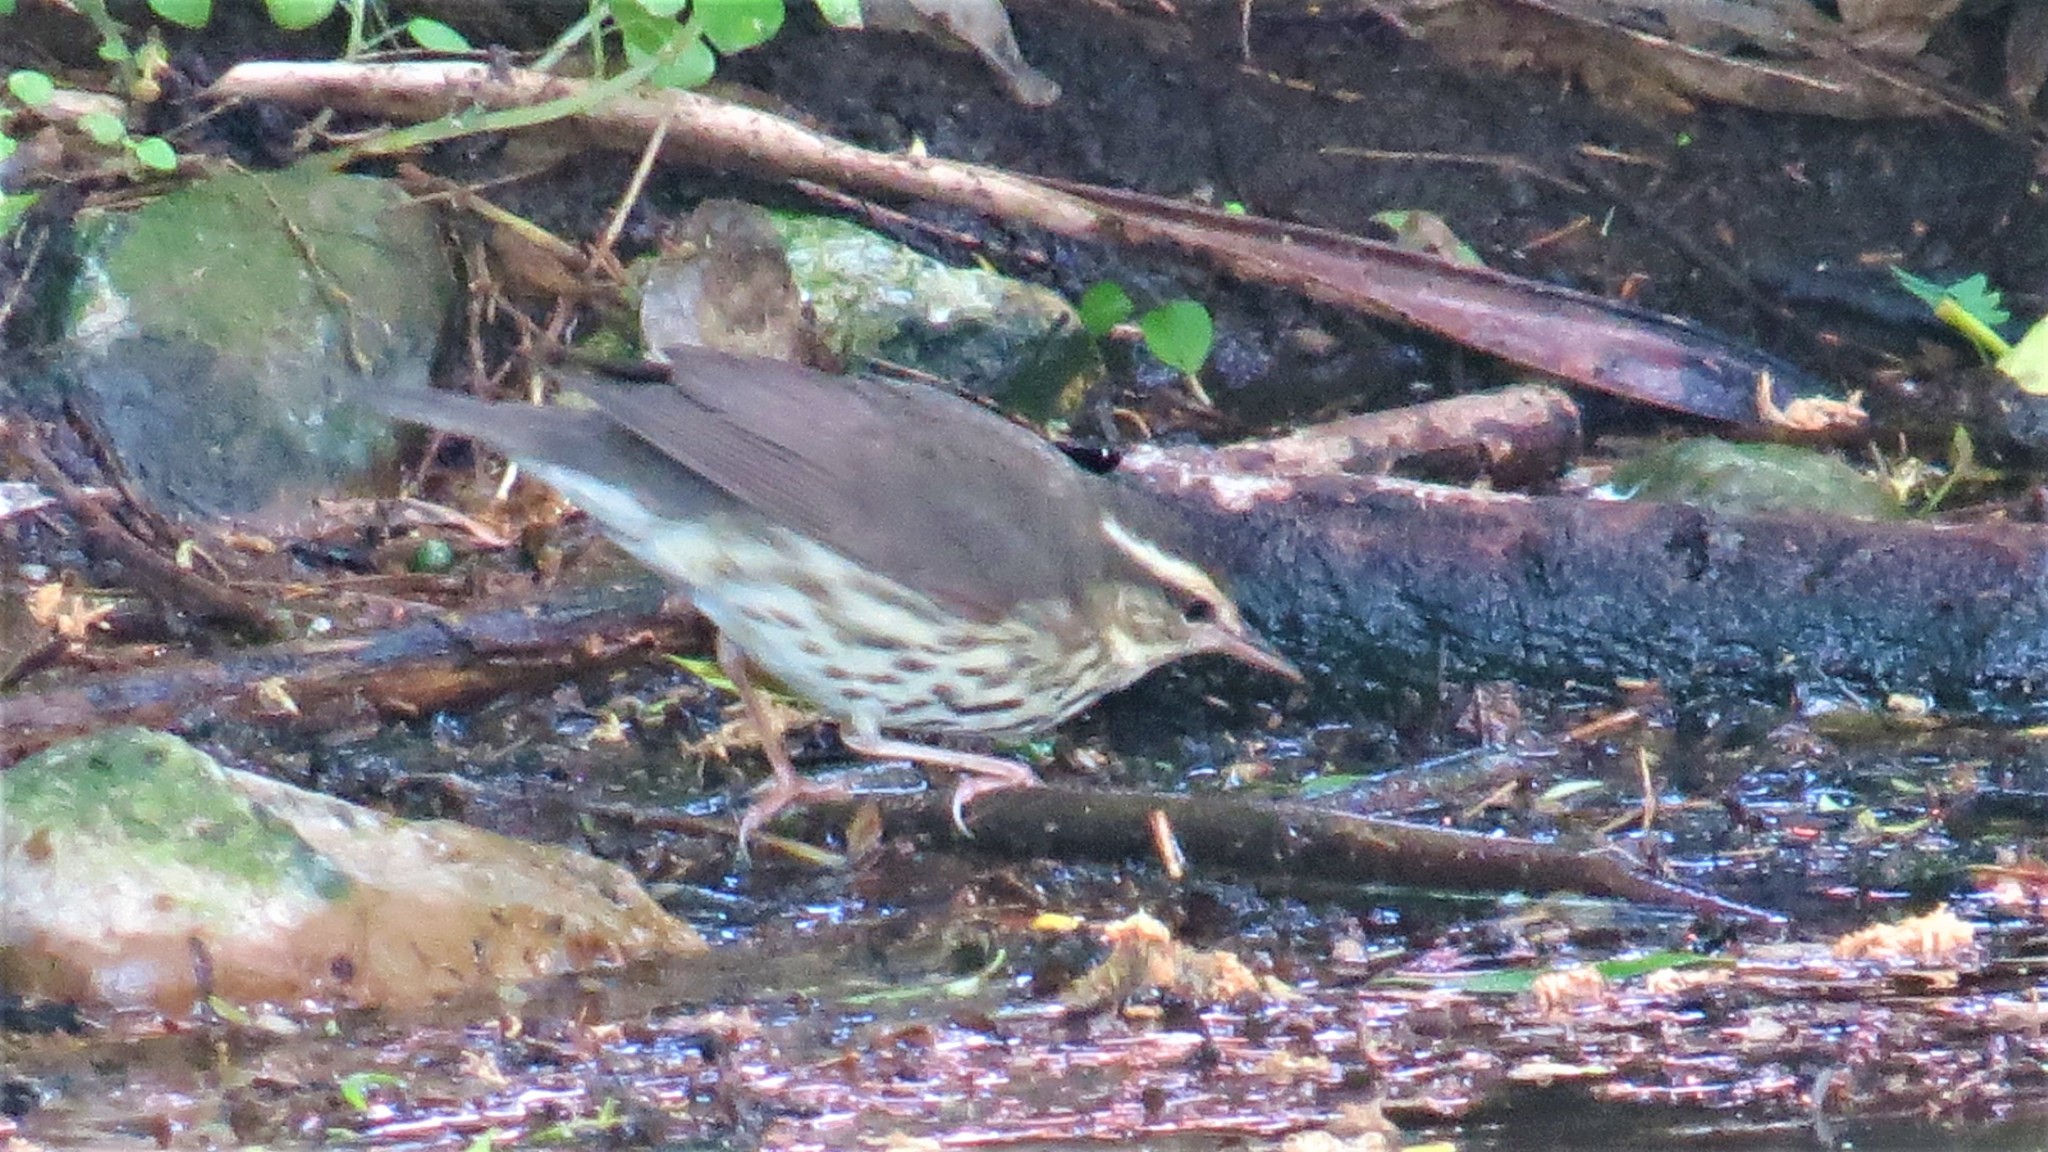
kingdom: Animalia
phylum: Chordata
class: Aves
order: Passeriformes
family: Parulidae
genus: Parkesia
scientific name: Parkesia noveboracensis
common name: Northern waterthrush
